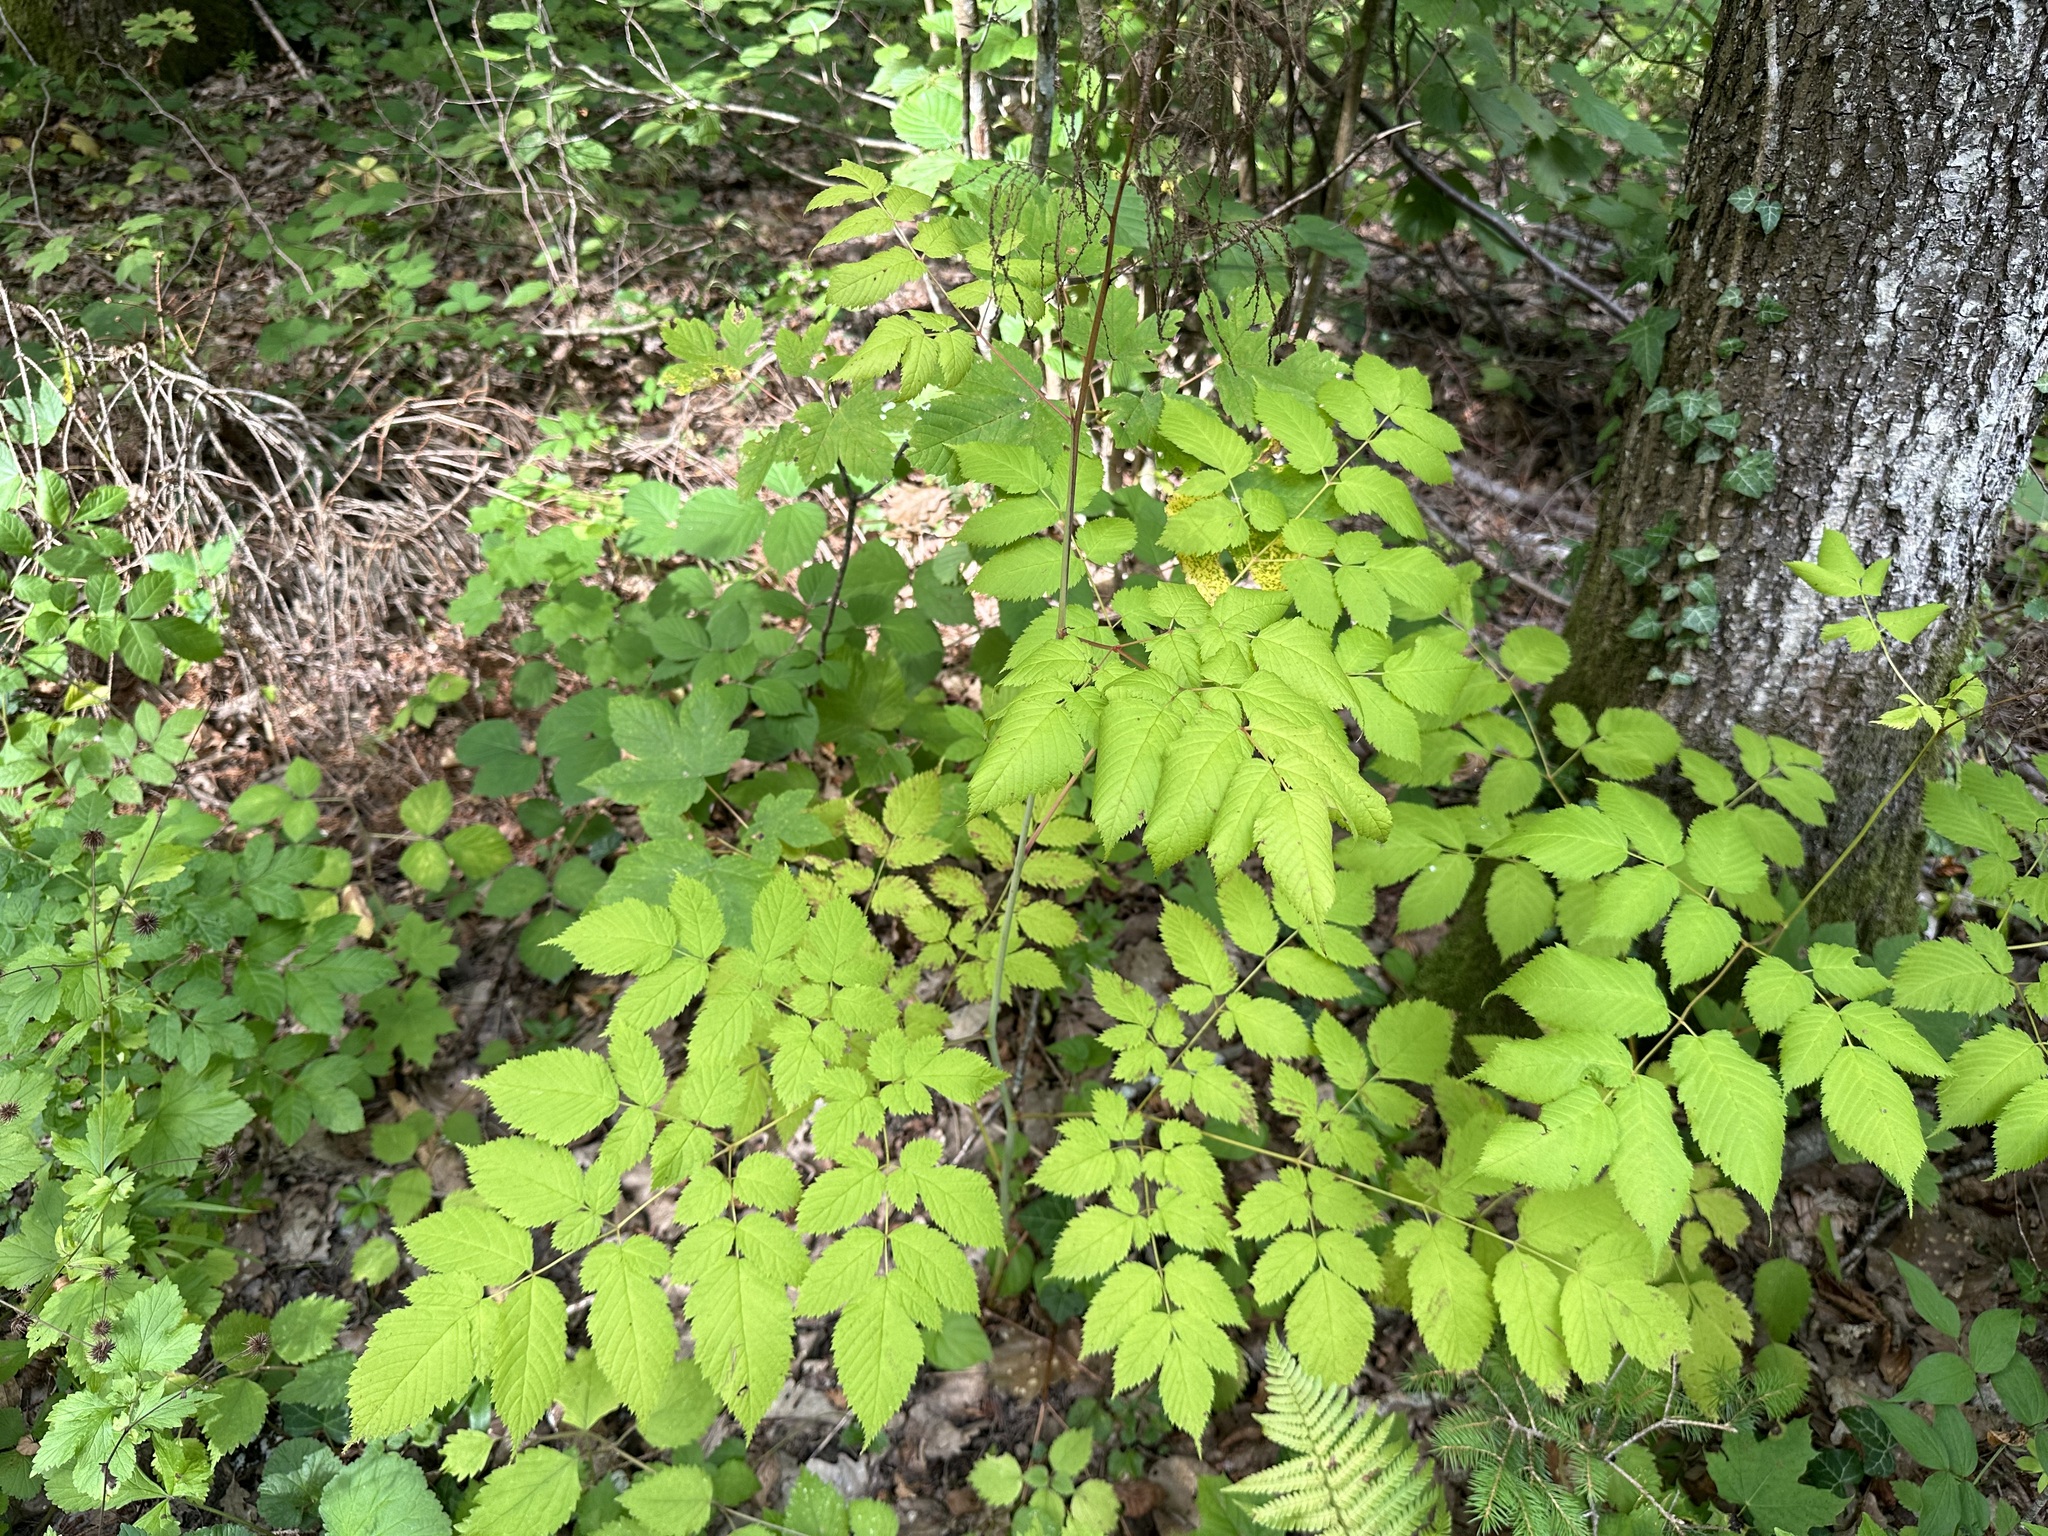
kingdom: Plantae
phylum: Tracheophyta
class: Magnoliopsida
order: Rosales
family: Rosaceae
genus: Aruncus
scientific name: Aruncus dioicus
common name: Buck's-beard
